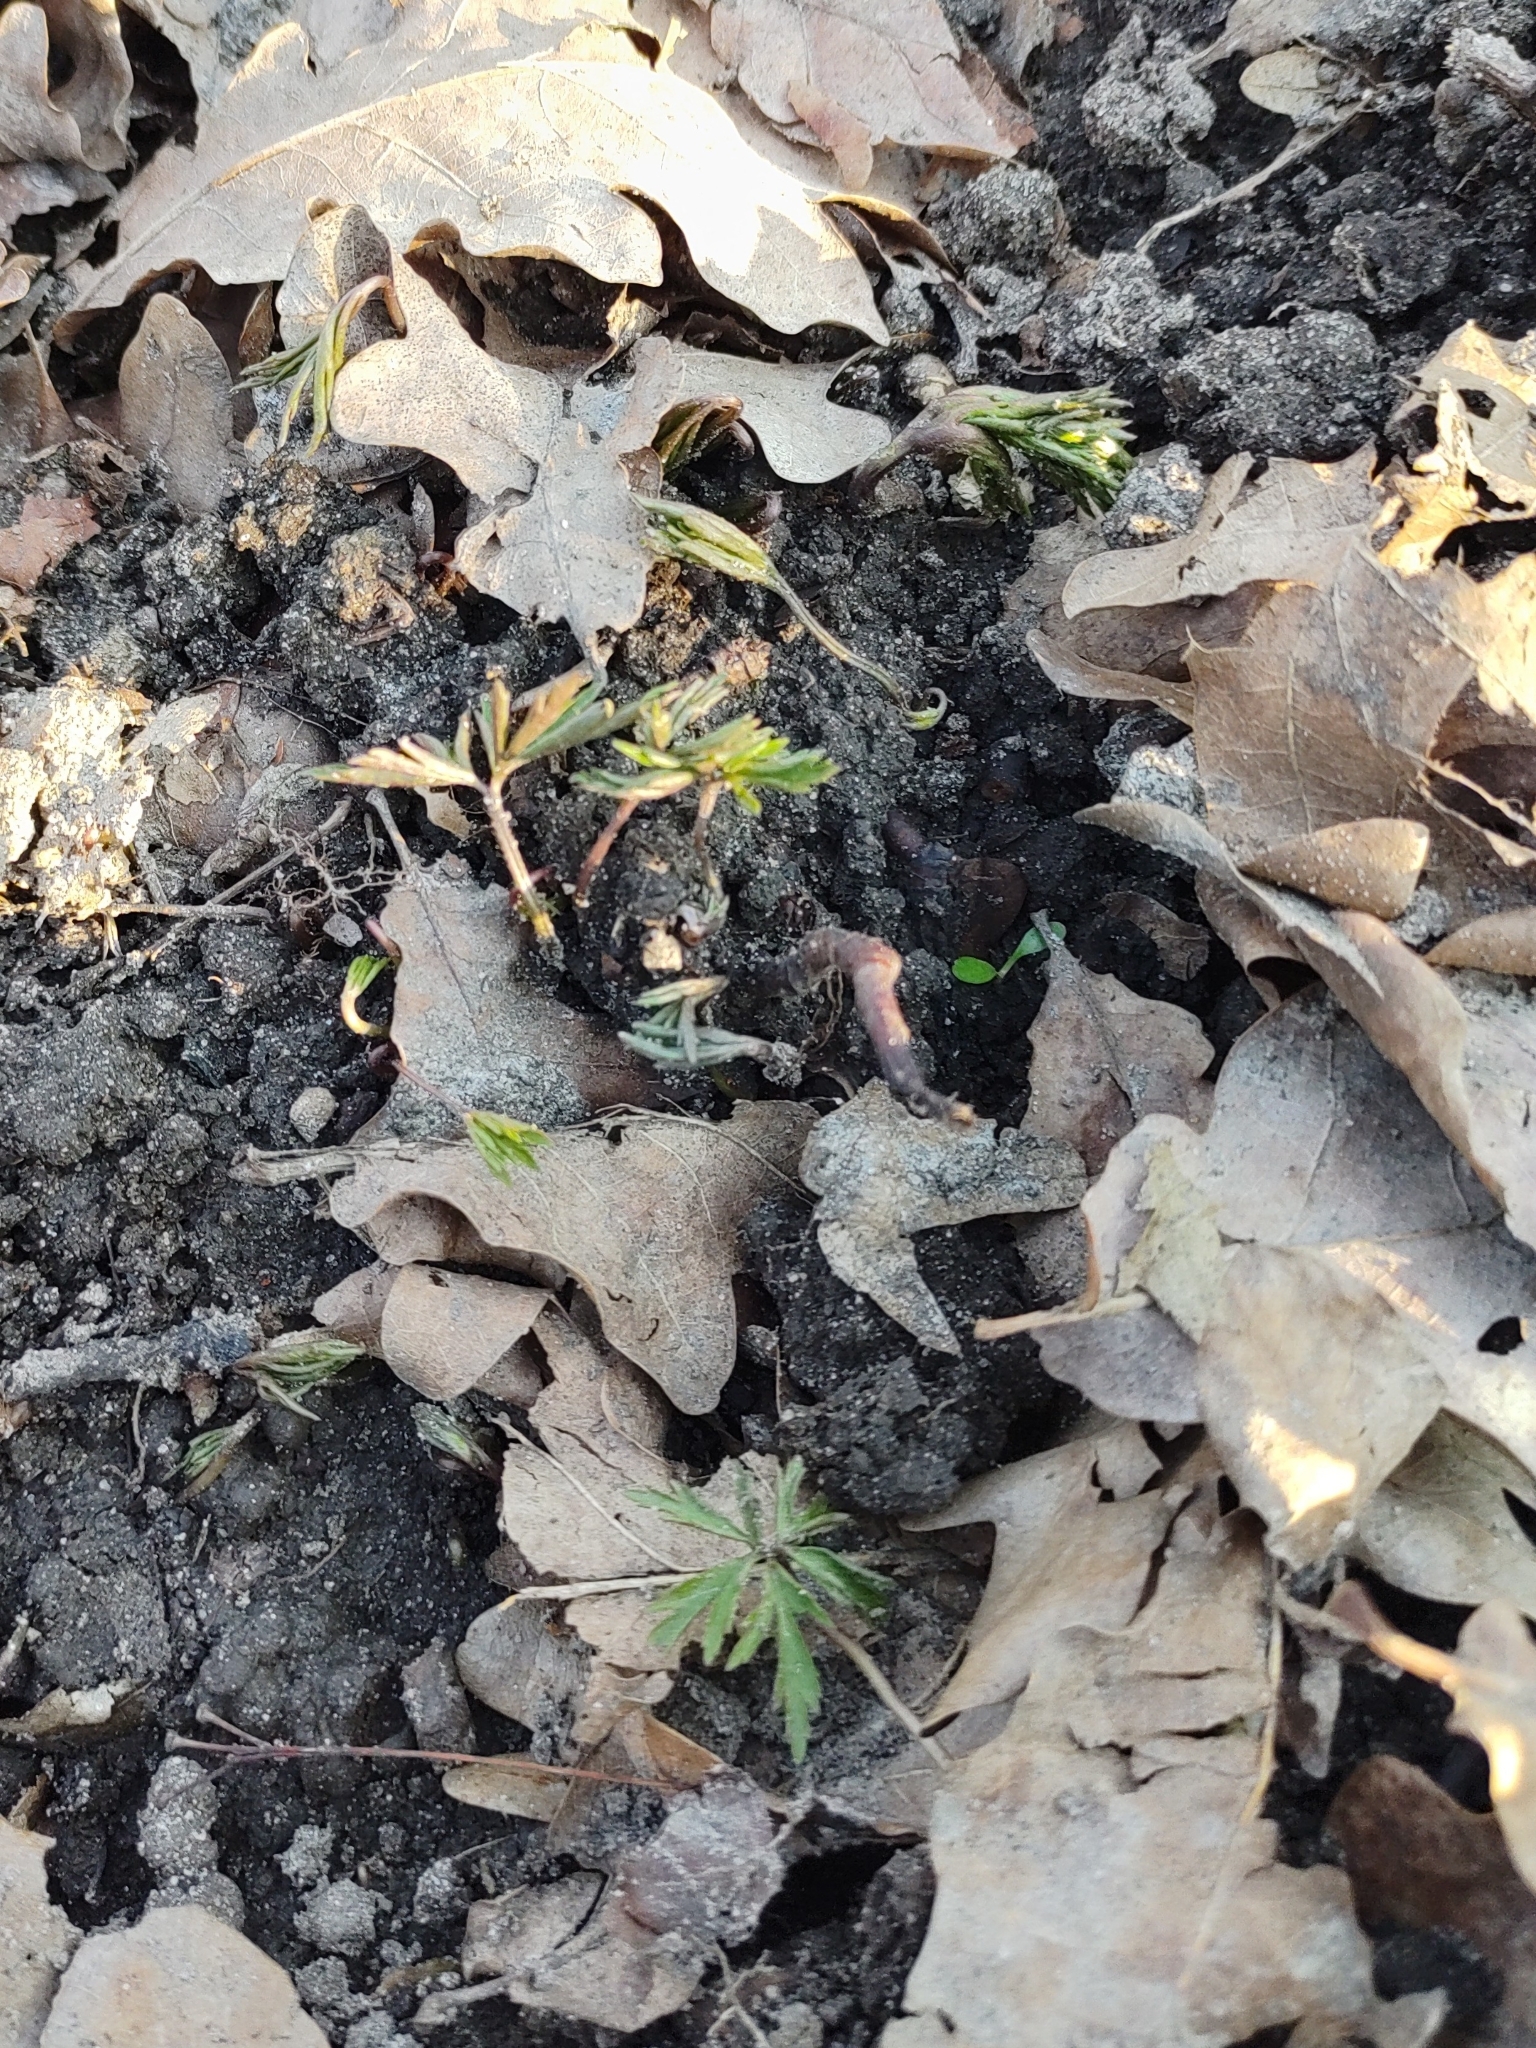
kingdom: Plantae
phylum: Tracheophyta
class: Magnoliopsida
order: Ranunculales
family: Ranunculaceae
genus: Anemone
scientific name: Anemone nemorosa
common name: Wood anemone
